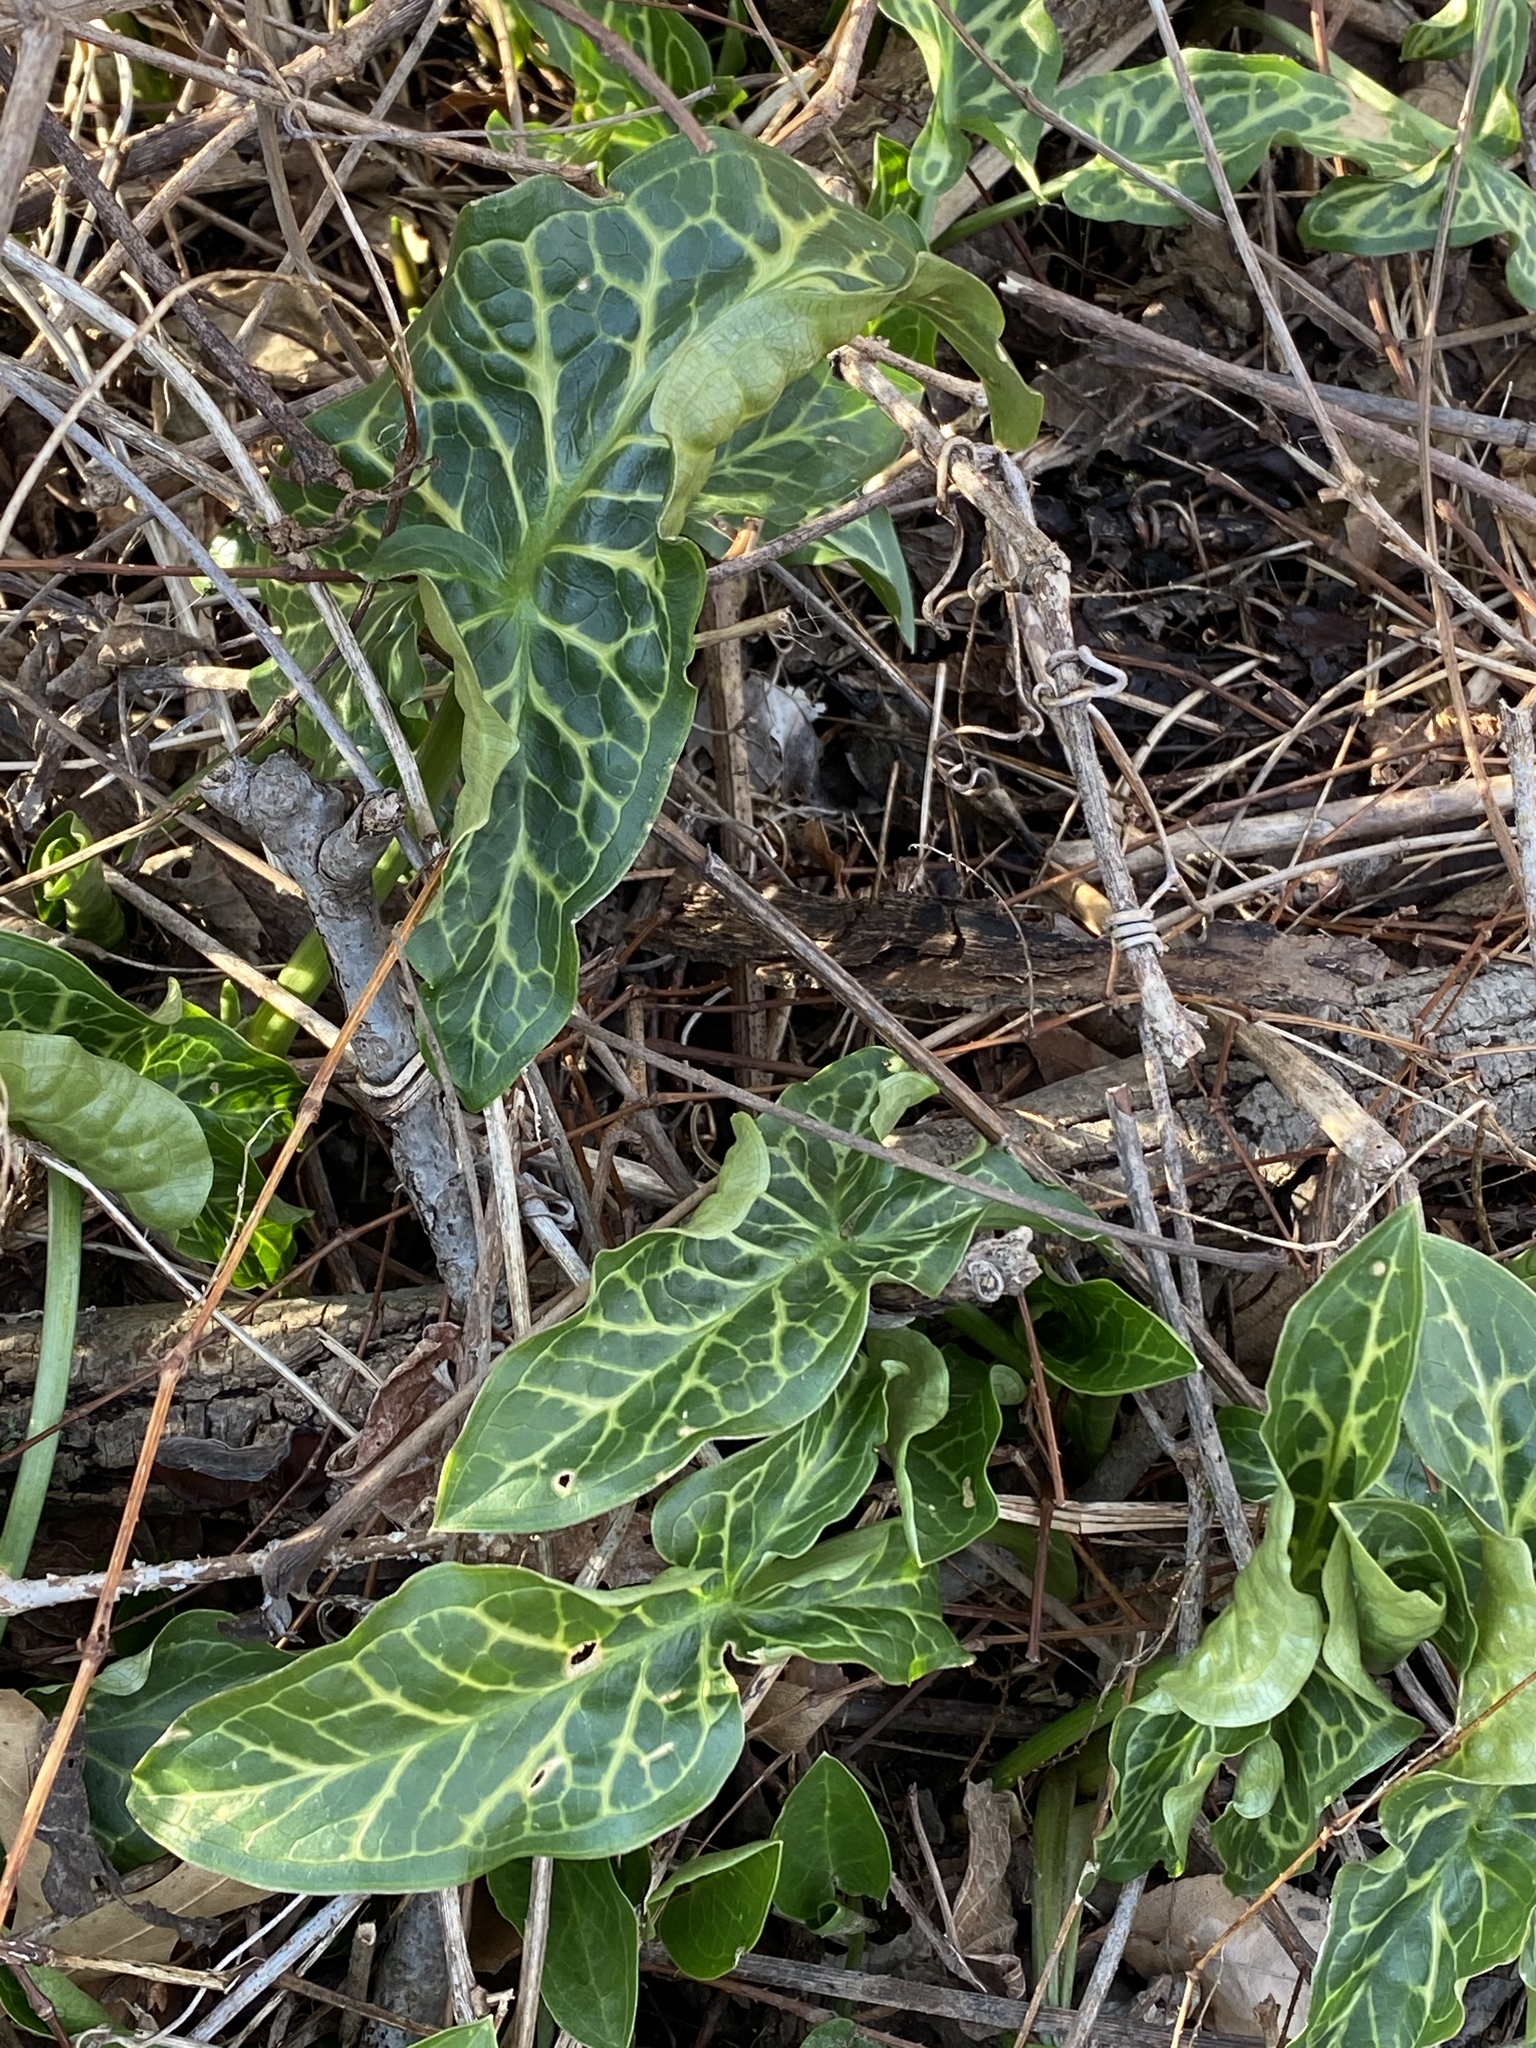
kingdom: Plantae
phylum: Tracheophyta
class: Liliopsida
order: Alismatales
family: Araceae
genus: Arum
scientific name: Arum italicum
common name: Italian lords-and-ladies
